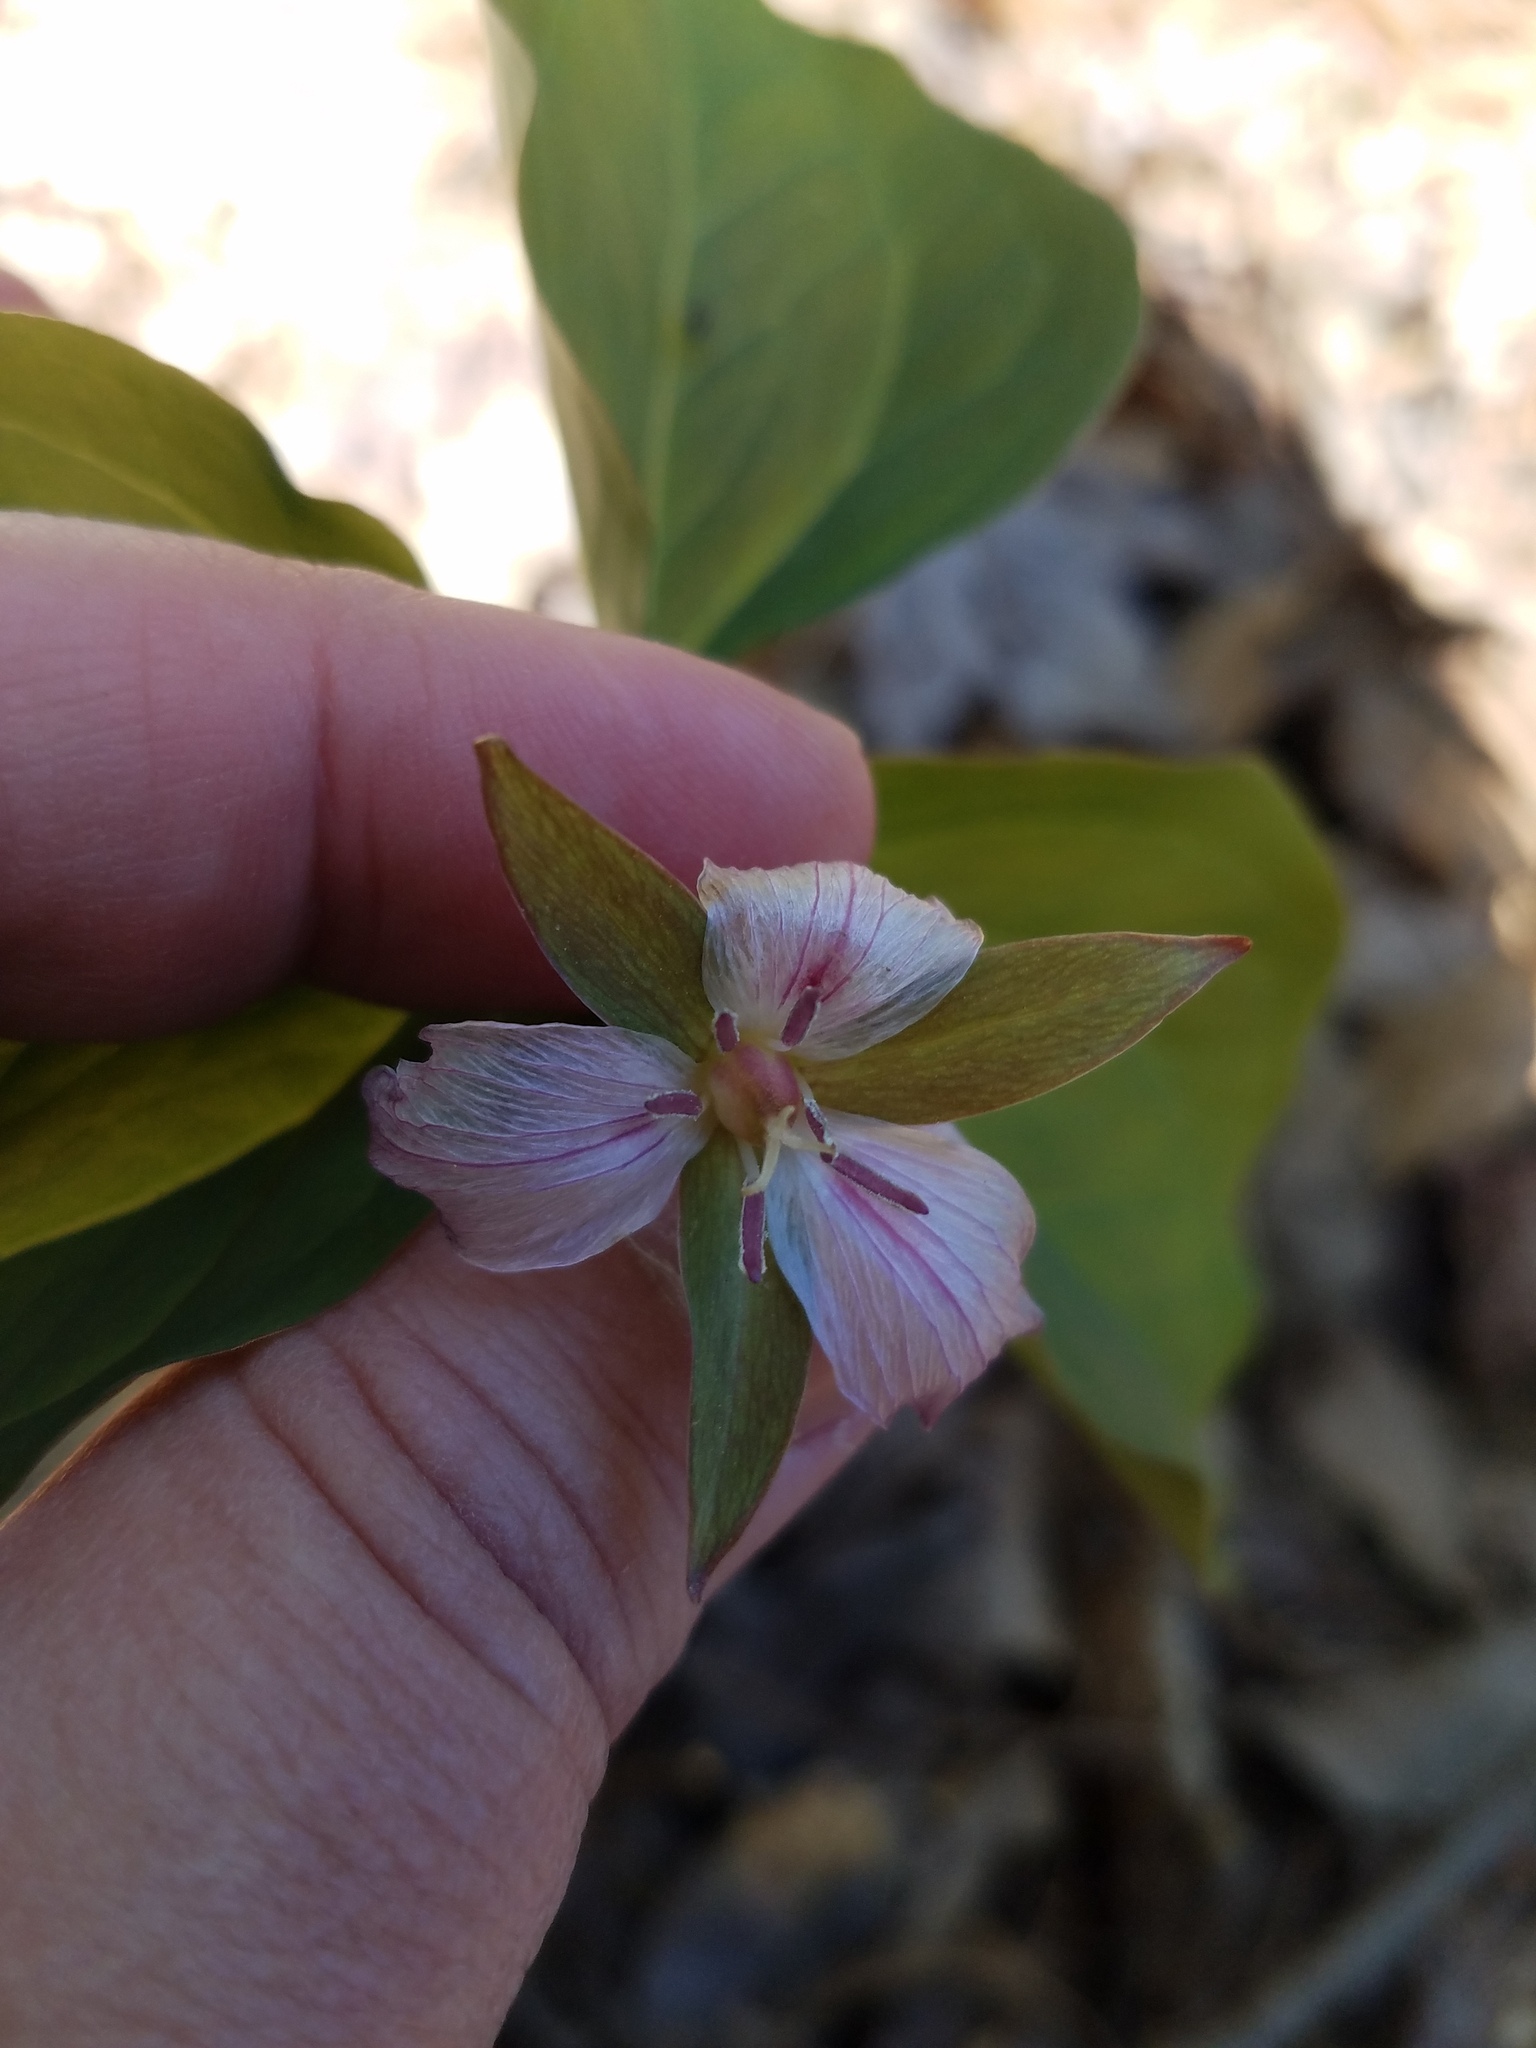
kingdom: Plantae
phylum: Tracheophyta
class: Liliopsida
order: Liliales
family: Melanthiaceae
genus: Trillium
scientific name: Trillium undulatum
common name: Paint trillium
